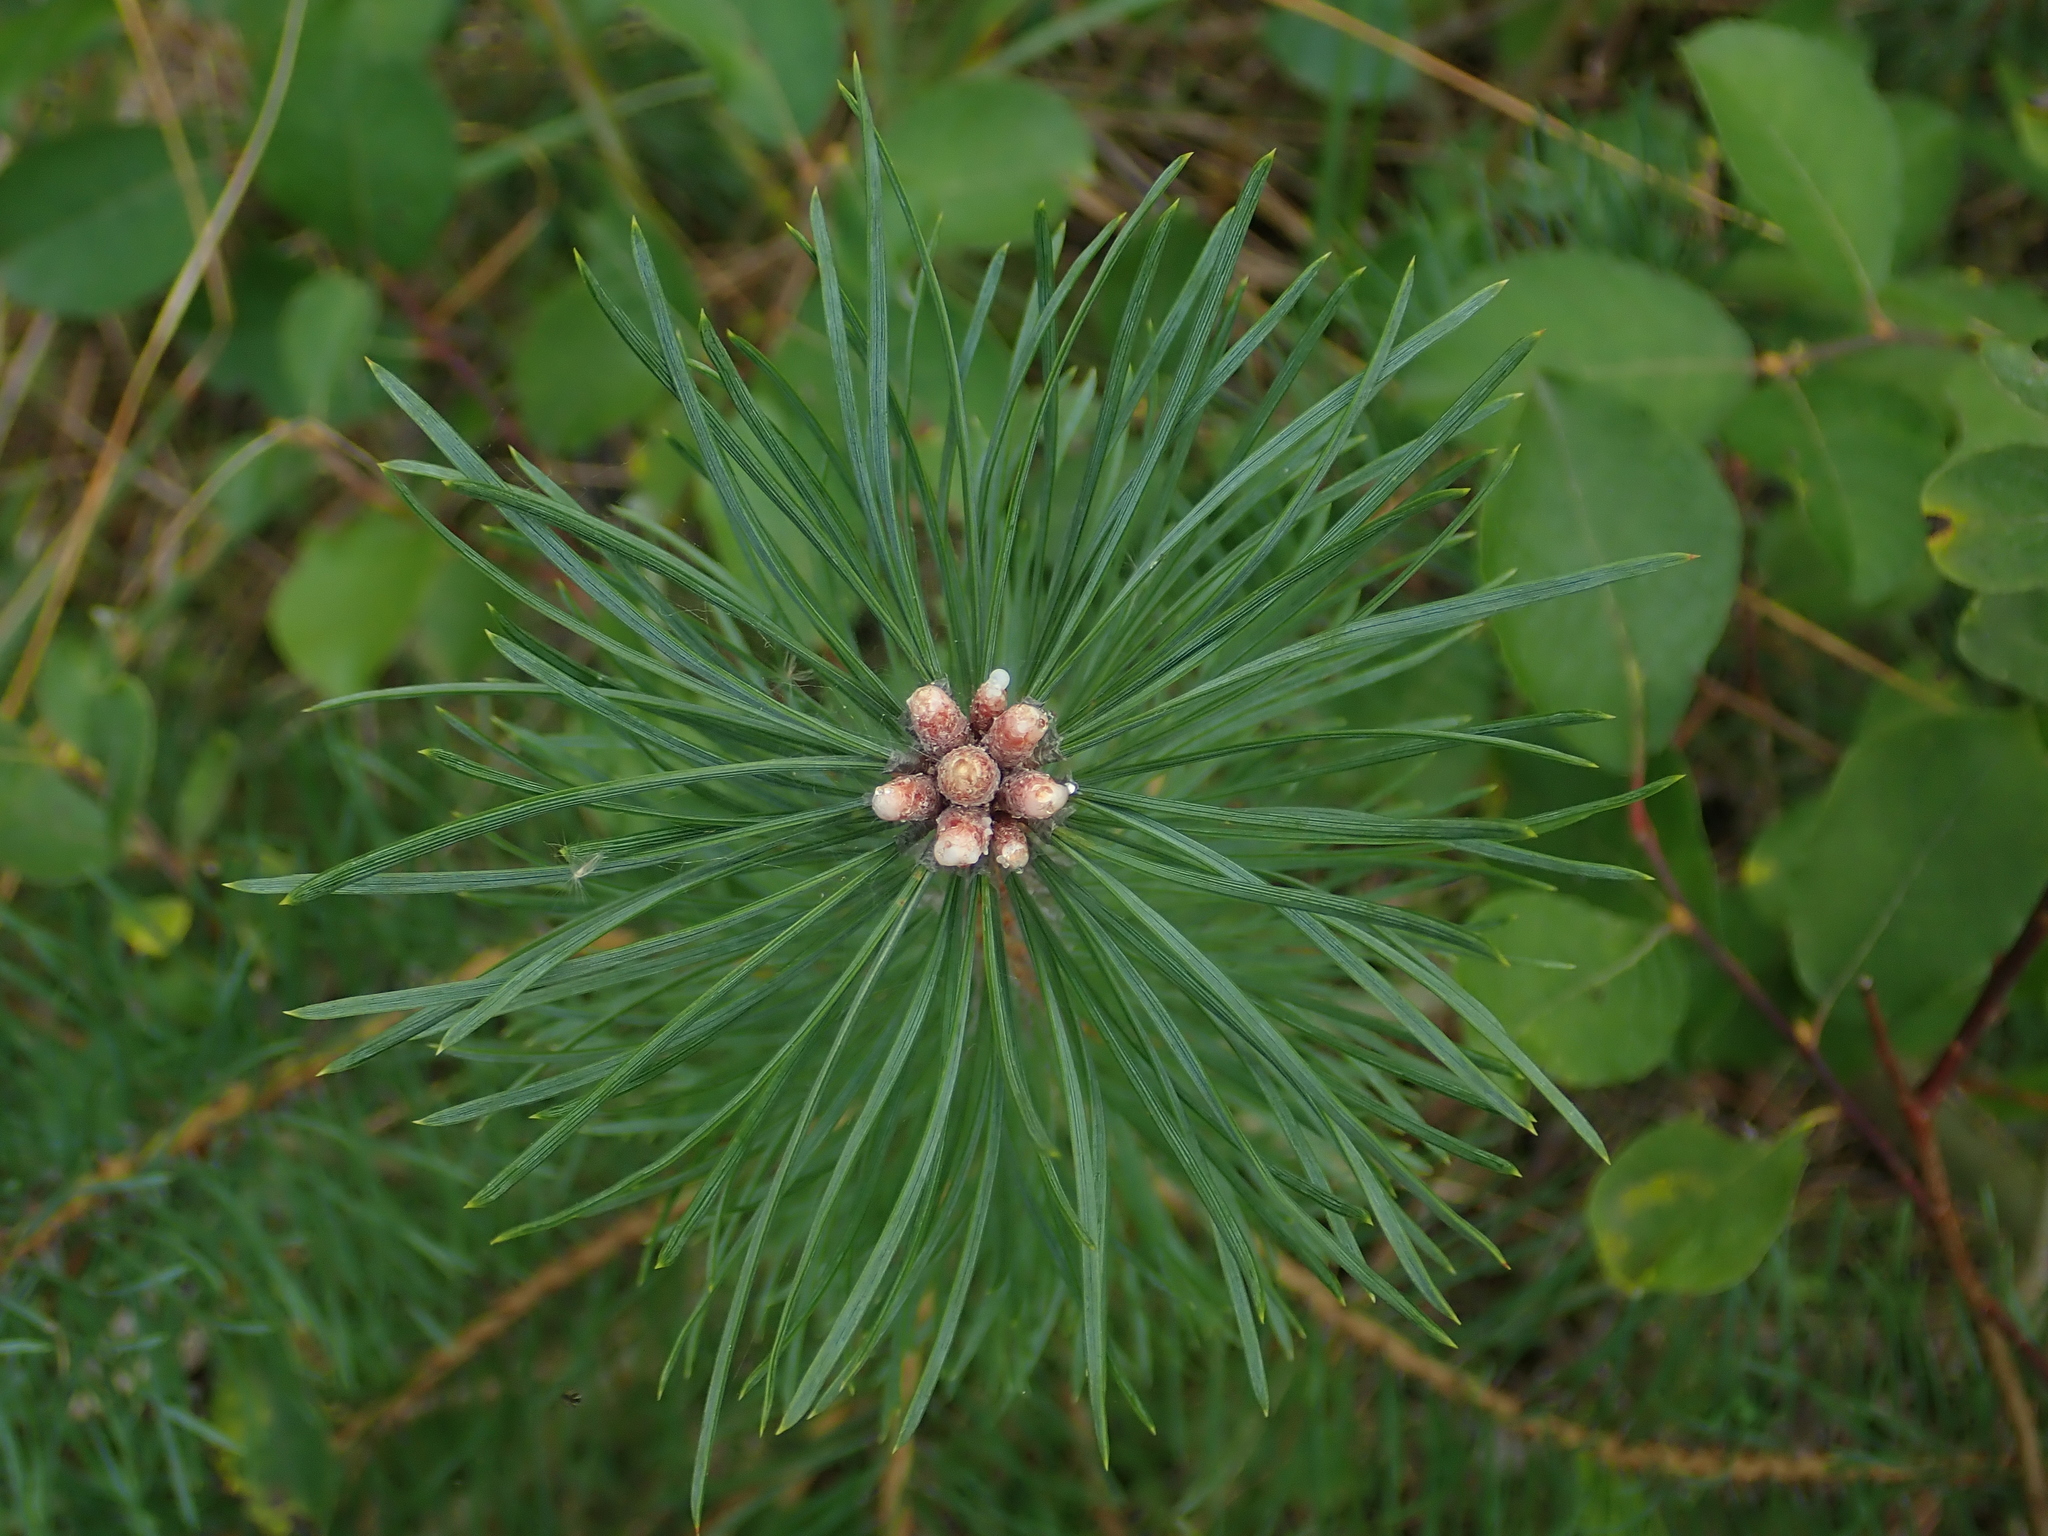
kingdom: Plantae
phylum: Tracheophyta
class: Pinopsida
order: Pinales
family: Pinaceae
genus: Pinus
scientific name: Pinus sylvestris
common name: Scots pine
